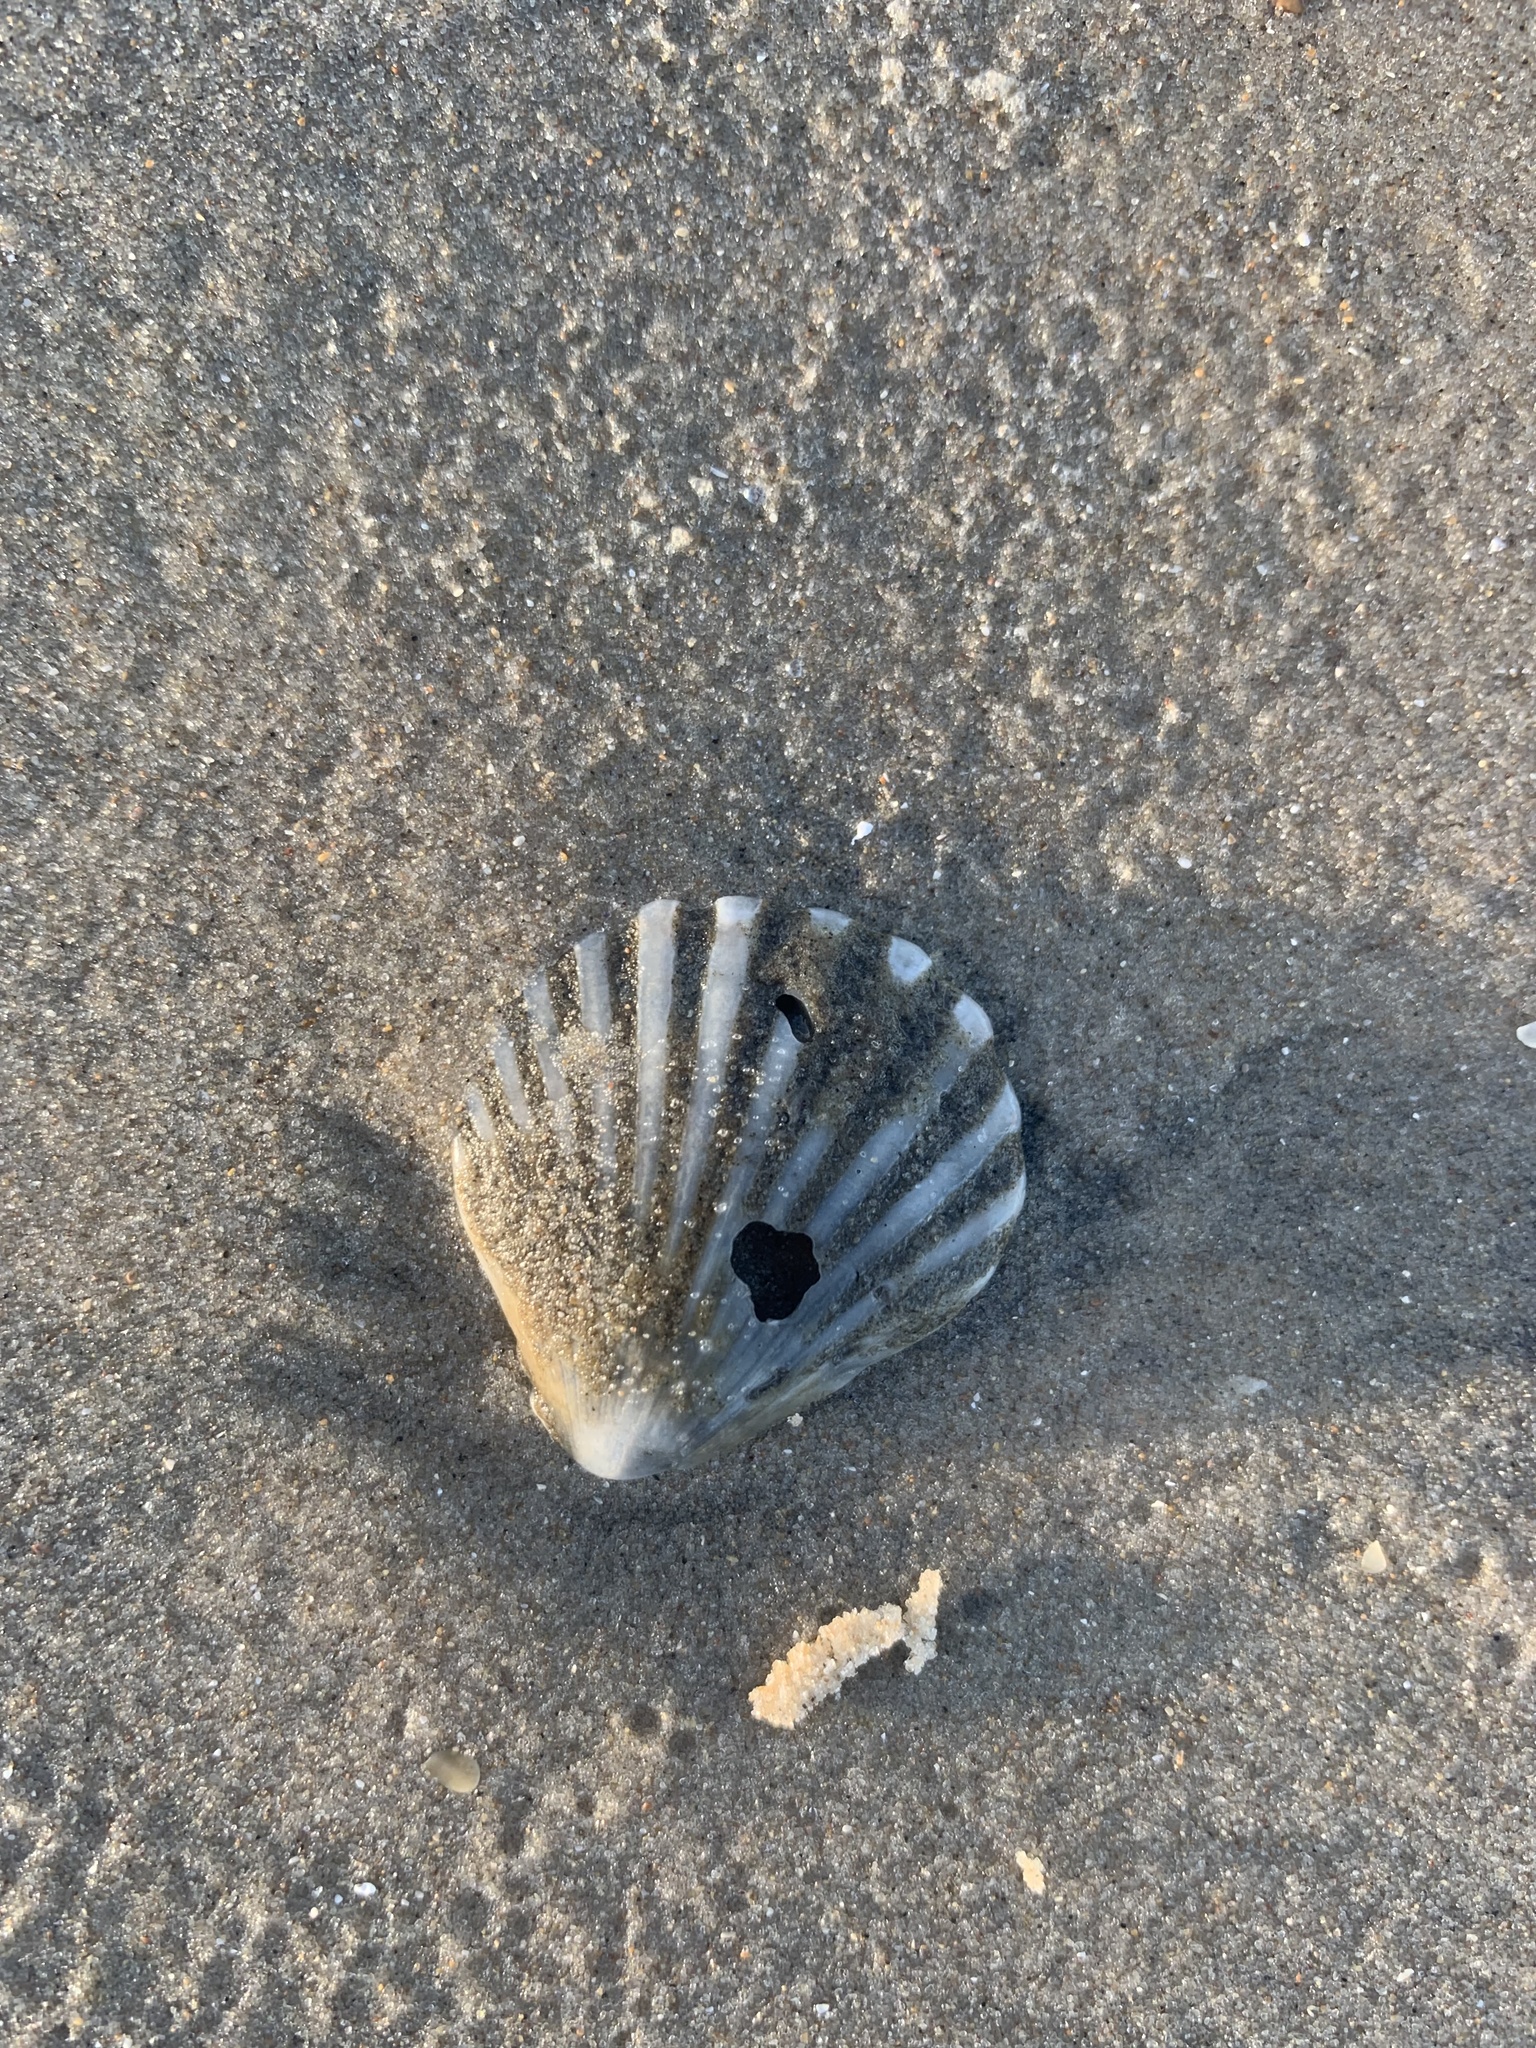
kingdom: Animalia
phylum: Mollusca
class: Bivalvia
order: Pectinida
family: Pectinidae
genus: Aequipecten
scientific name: Aequipecten tehuelchus
